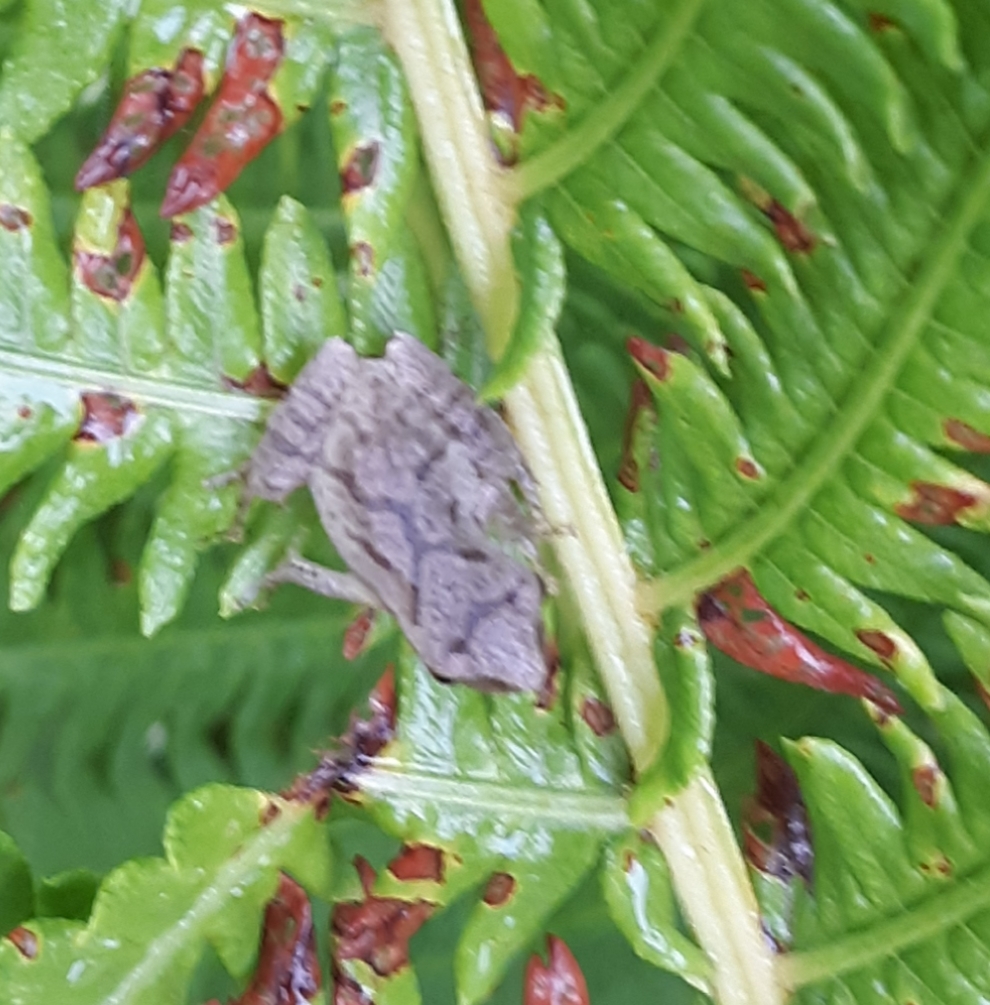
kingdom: Animalia
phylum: Chordata
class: Amphibia
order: Anura
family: Hylidae
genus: Pseudacris
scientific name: Pseudacris crucifer
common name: Spring peeper
